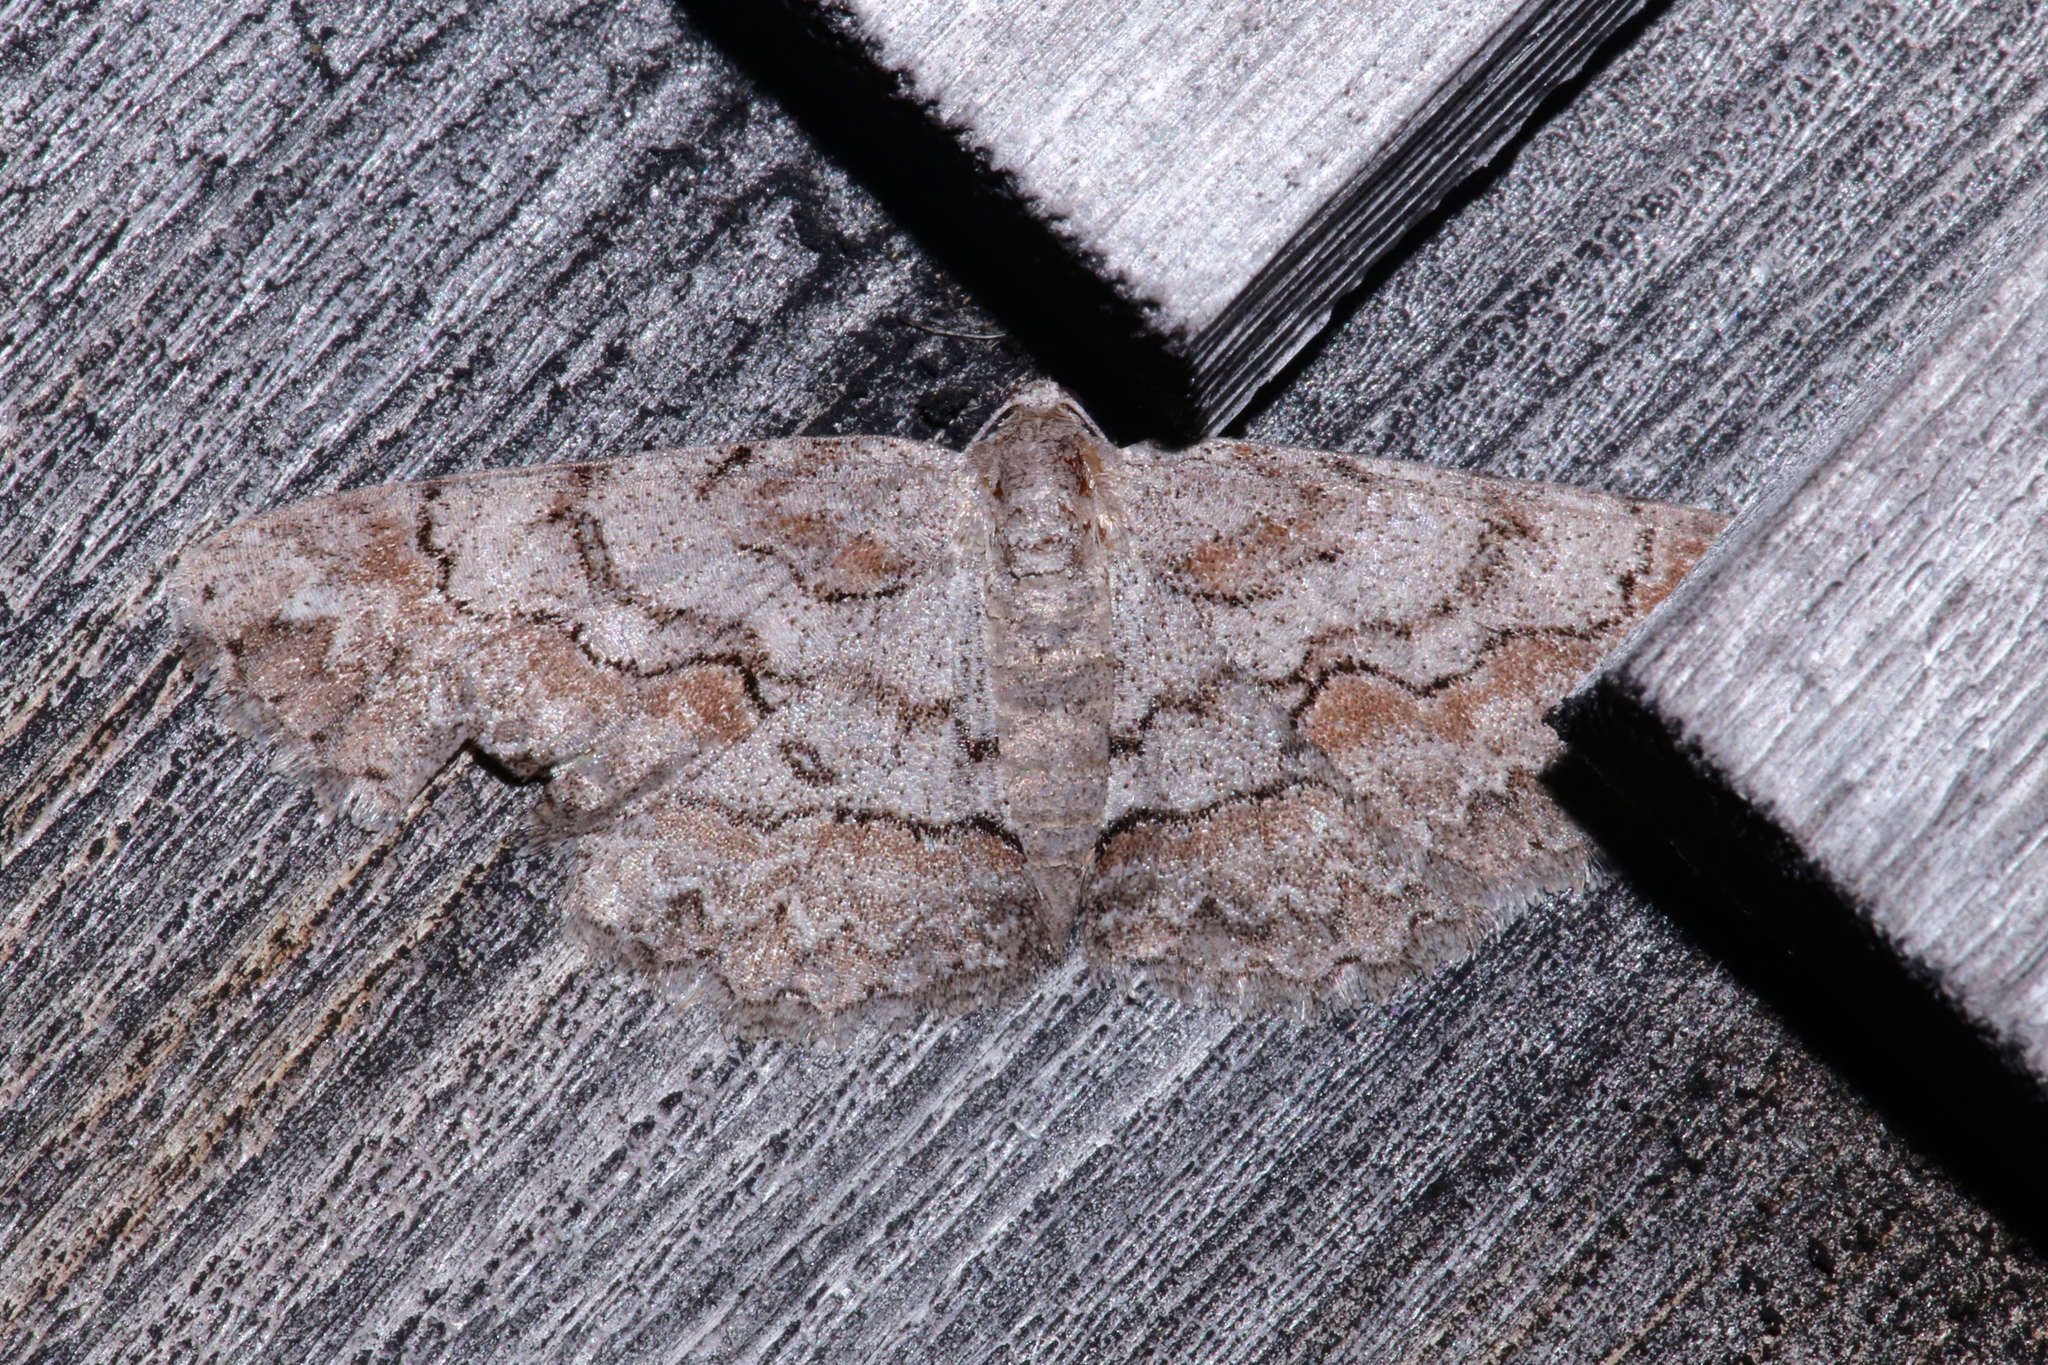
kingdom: Animalia
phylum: Arthropoda
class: Insecta
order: Lepidoptera
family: Geometridae
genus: Iridopsis
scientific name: Iridopsis vellivolata
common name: Large purplish gray
